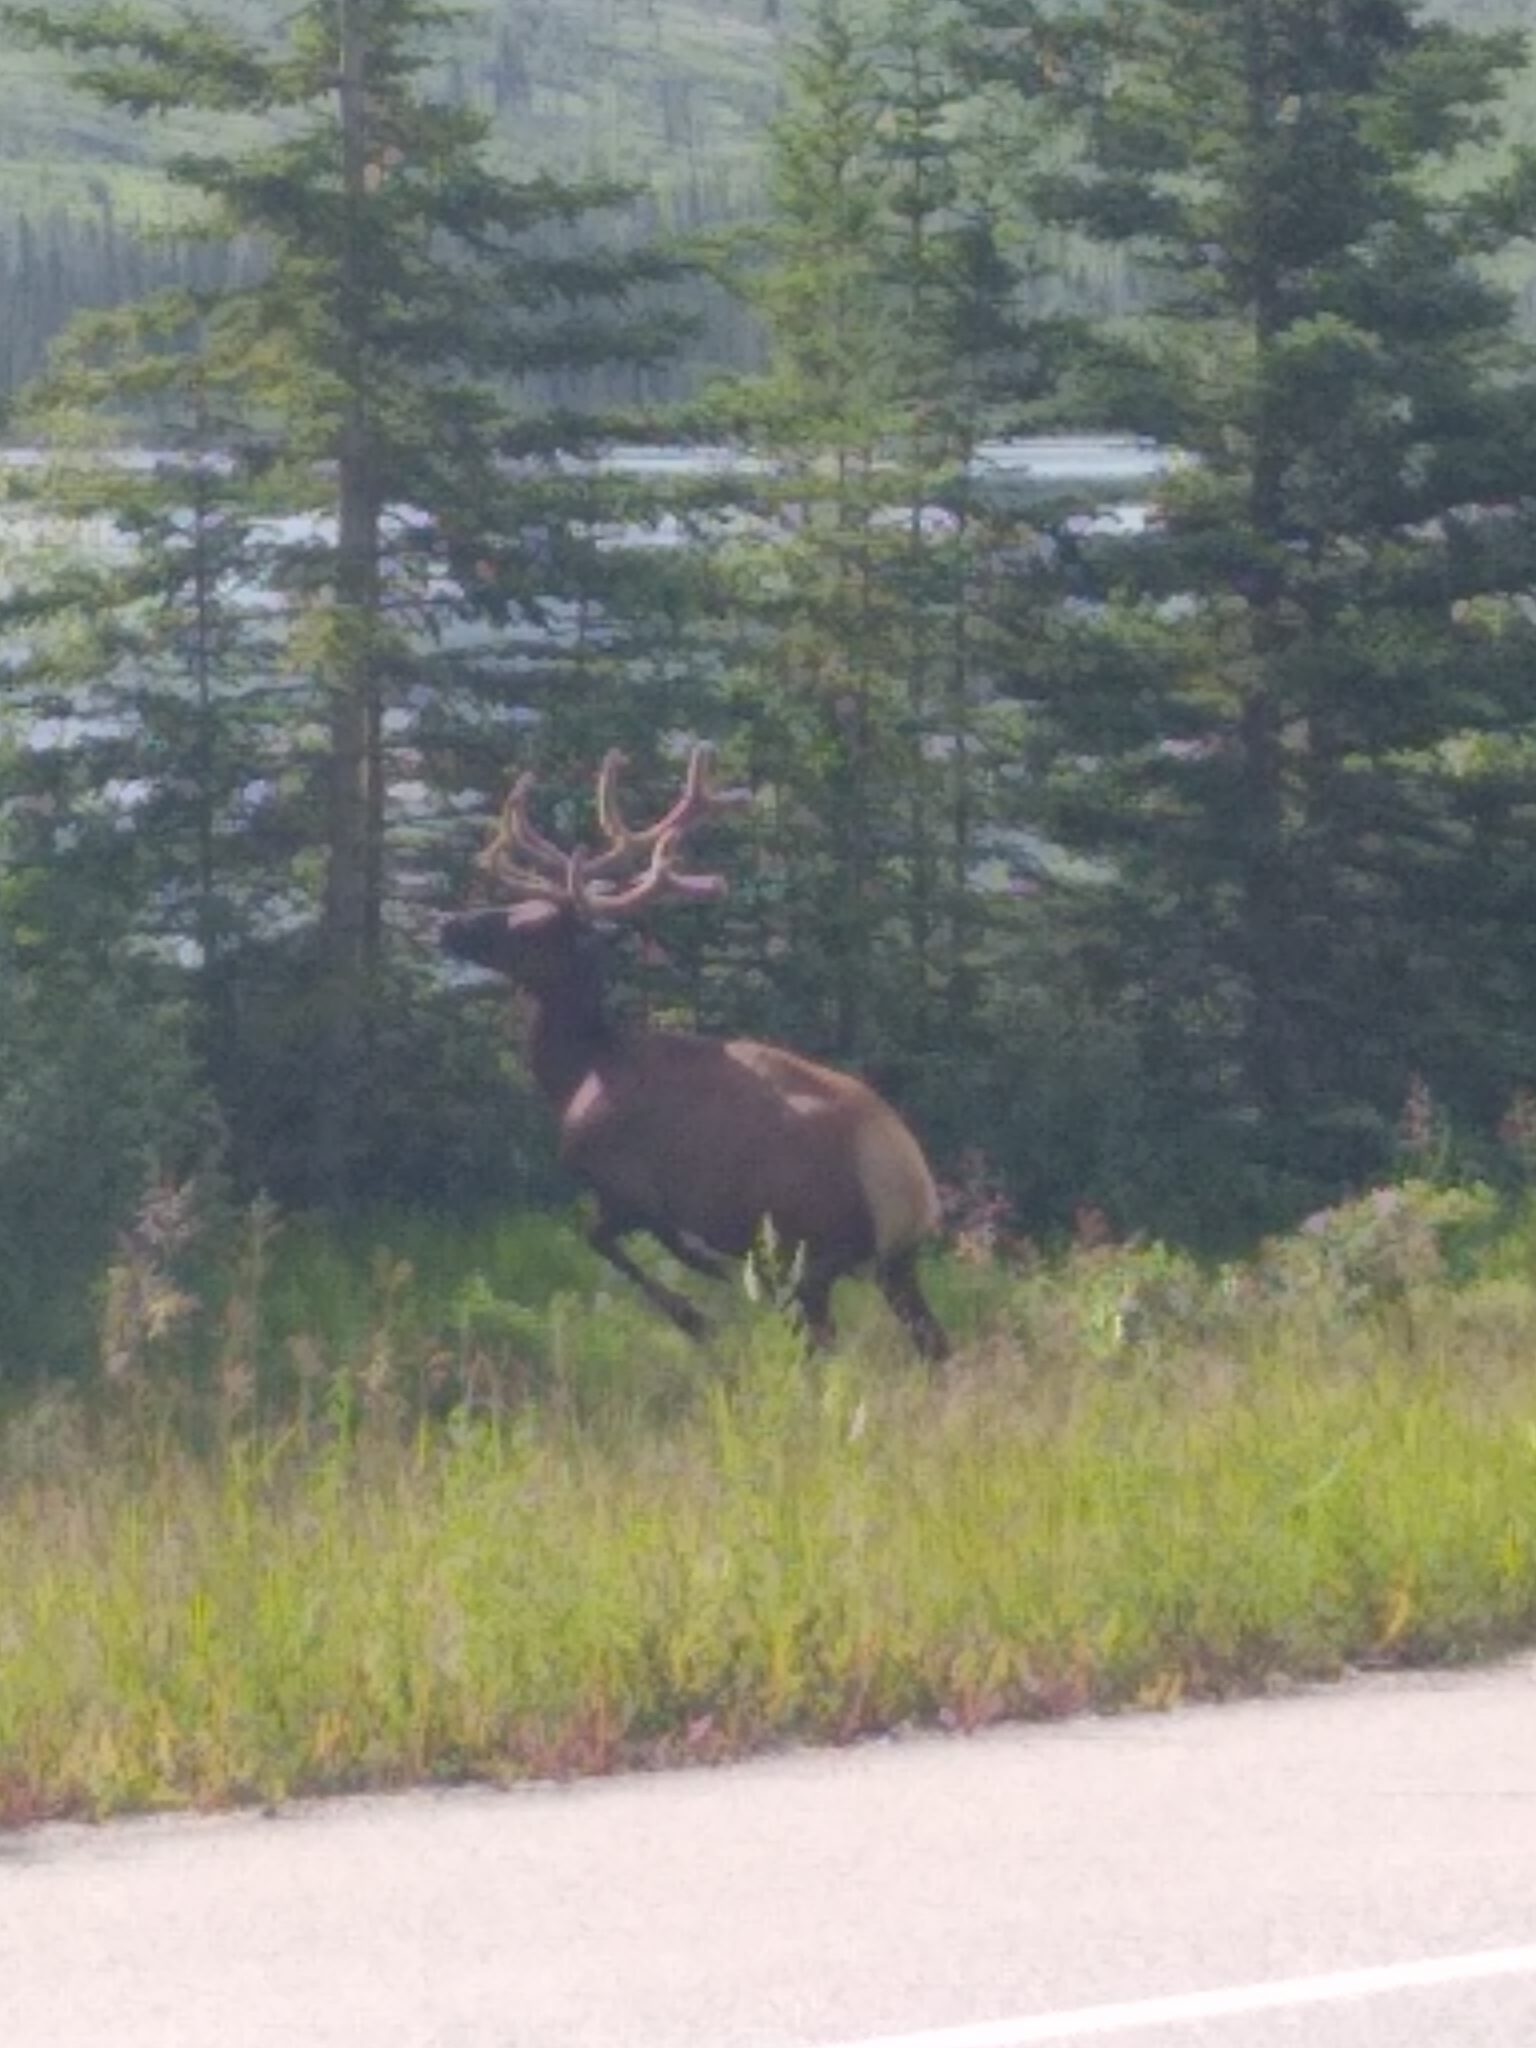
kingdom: Animalia
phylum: Chordata
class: Mammalia
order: Artiodactyla
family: Cervidae
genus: Cervus
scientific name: Cervus elaphus
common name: Red deer
